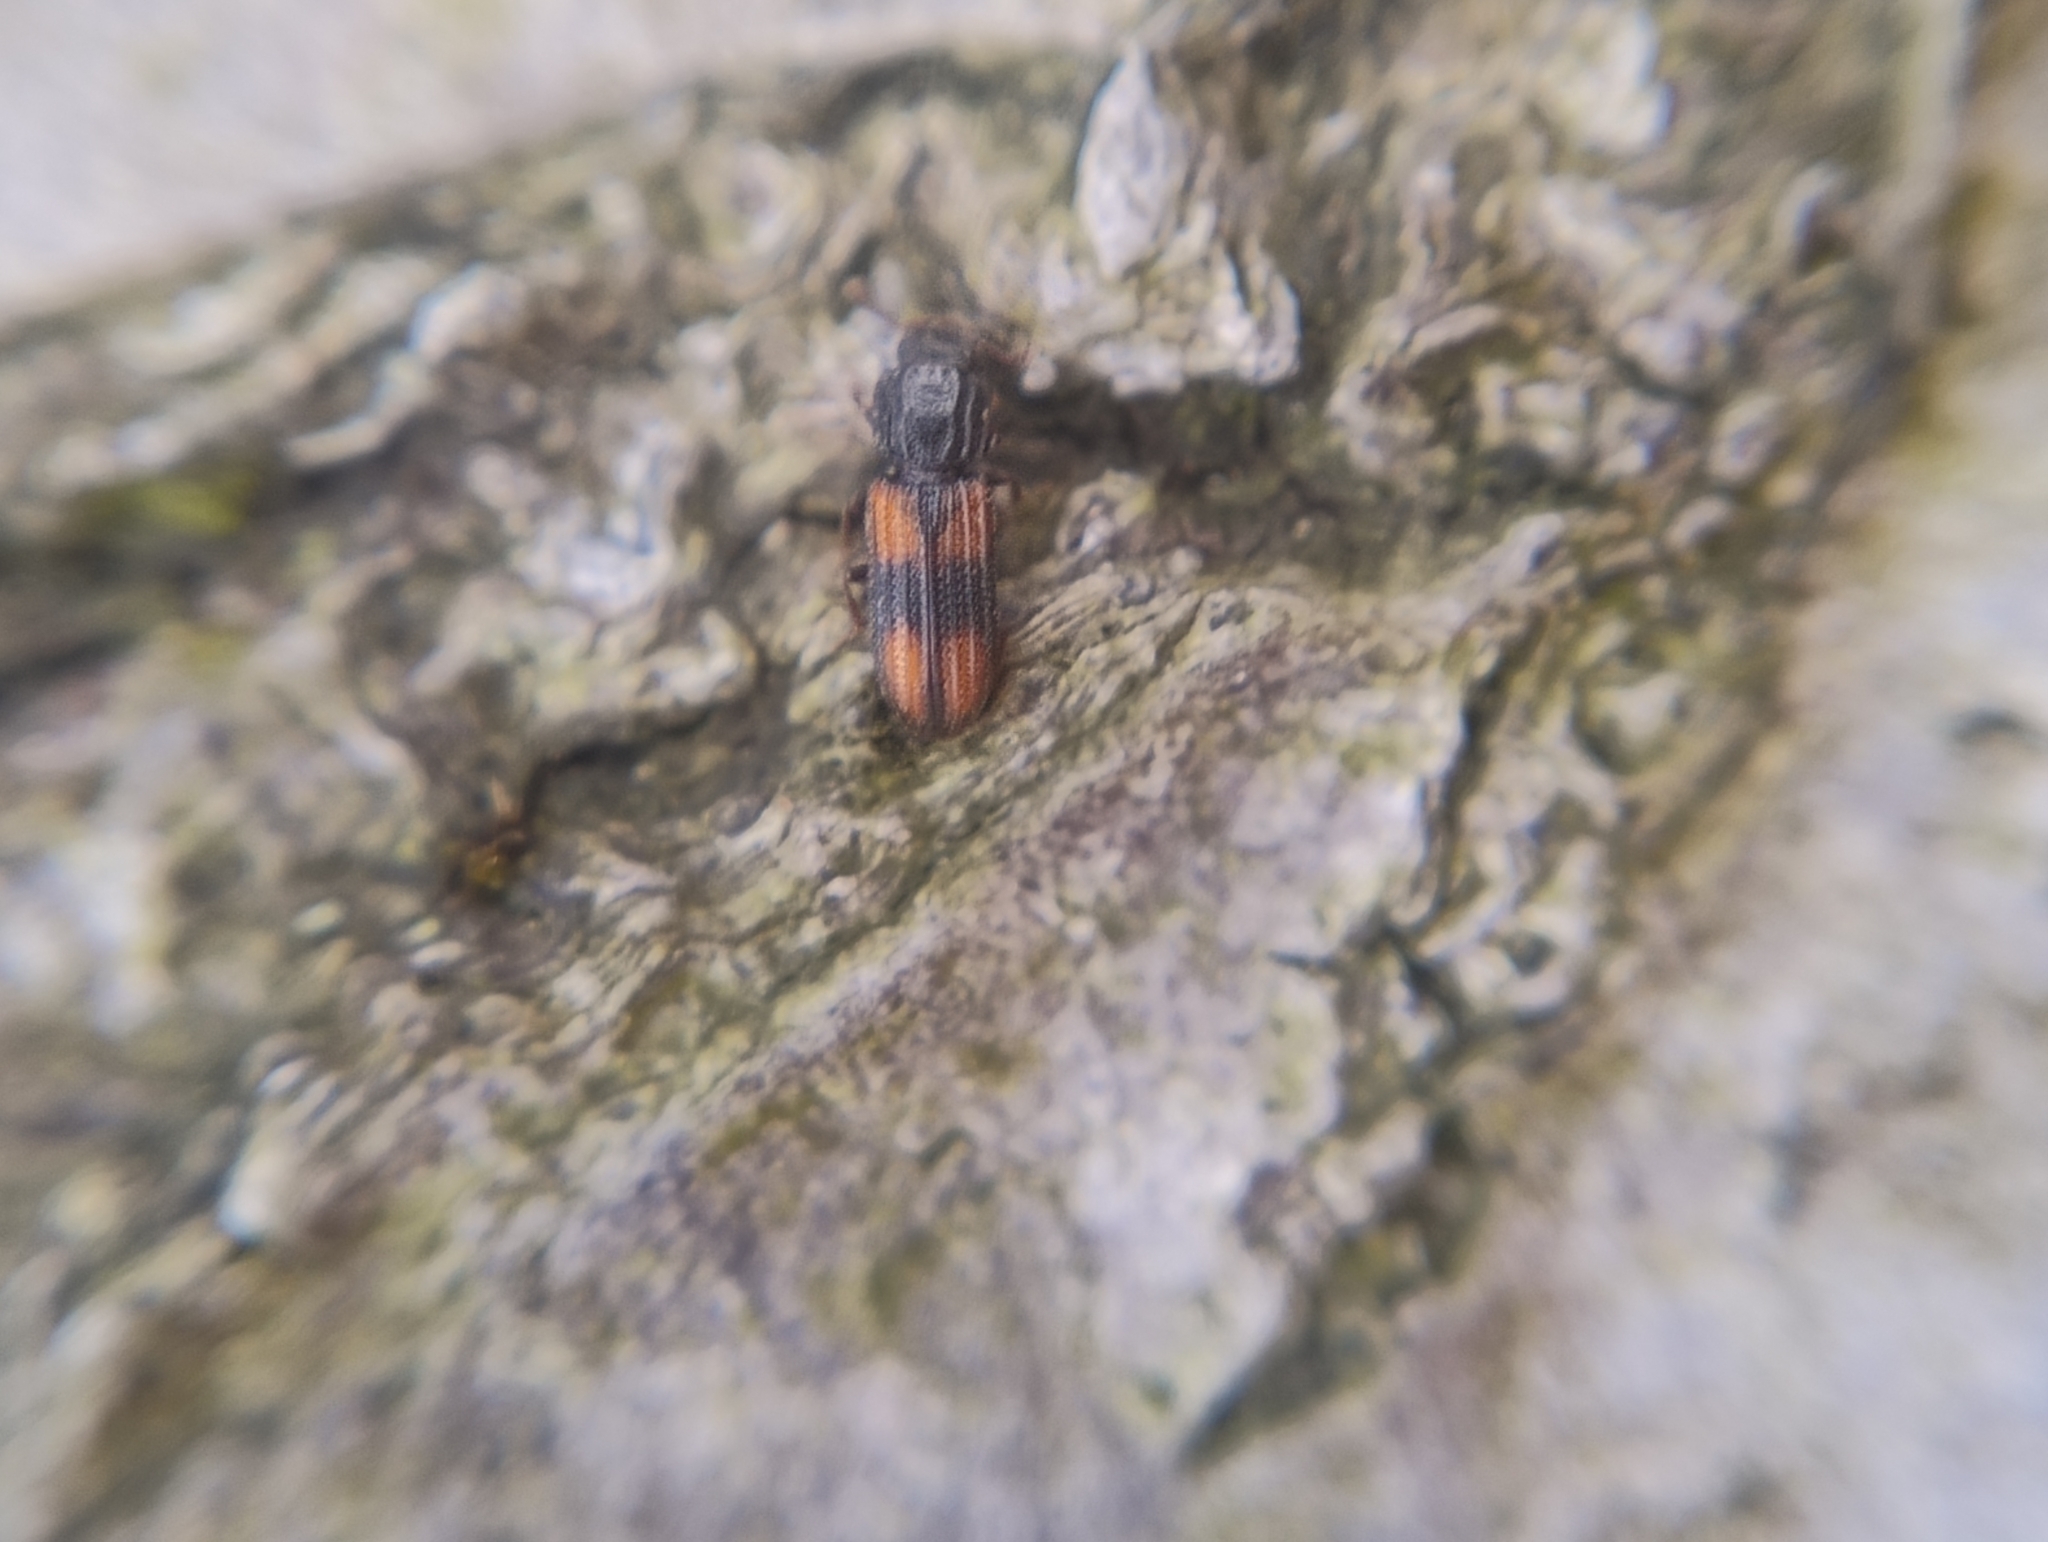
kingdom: Animalia
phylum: Arthropoda
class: Insecta
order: Coleoptera
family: Zopheridae
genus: Bitoma
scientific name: Bitoma crenata
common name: Bark beetle
